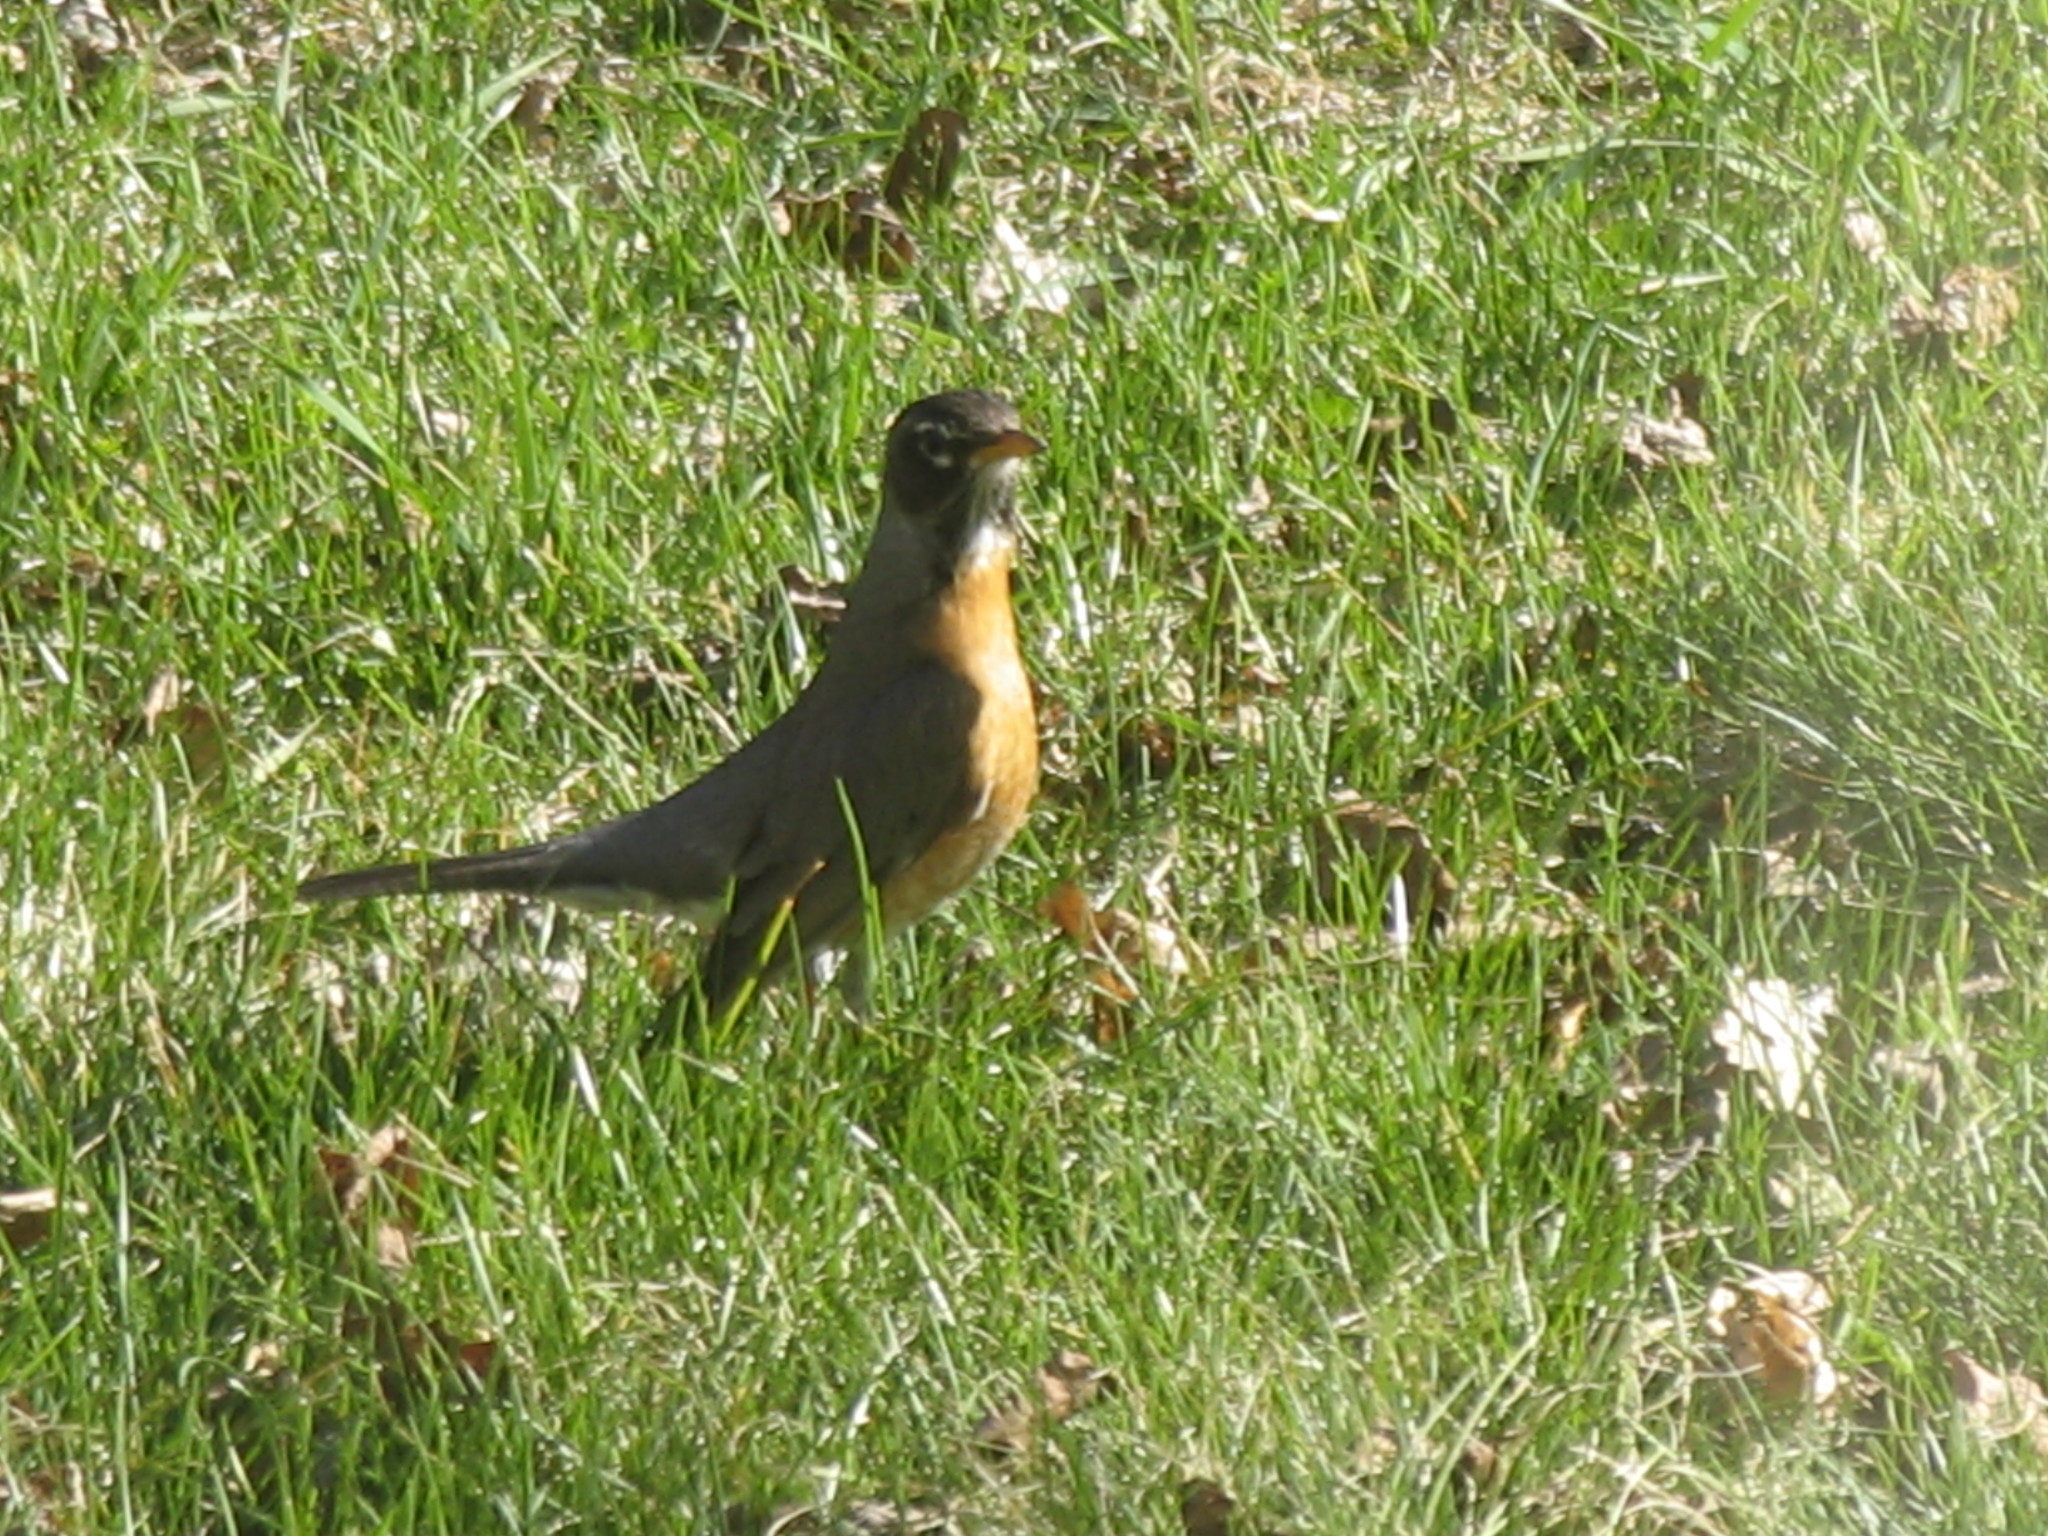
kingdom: Animalia
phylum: Chordata
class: Aves
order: Passeriformes
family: Turdidae
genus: Turdus
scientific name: Turdus migratorius
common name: American robin
